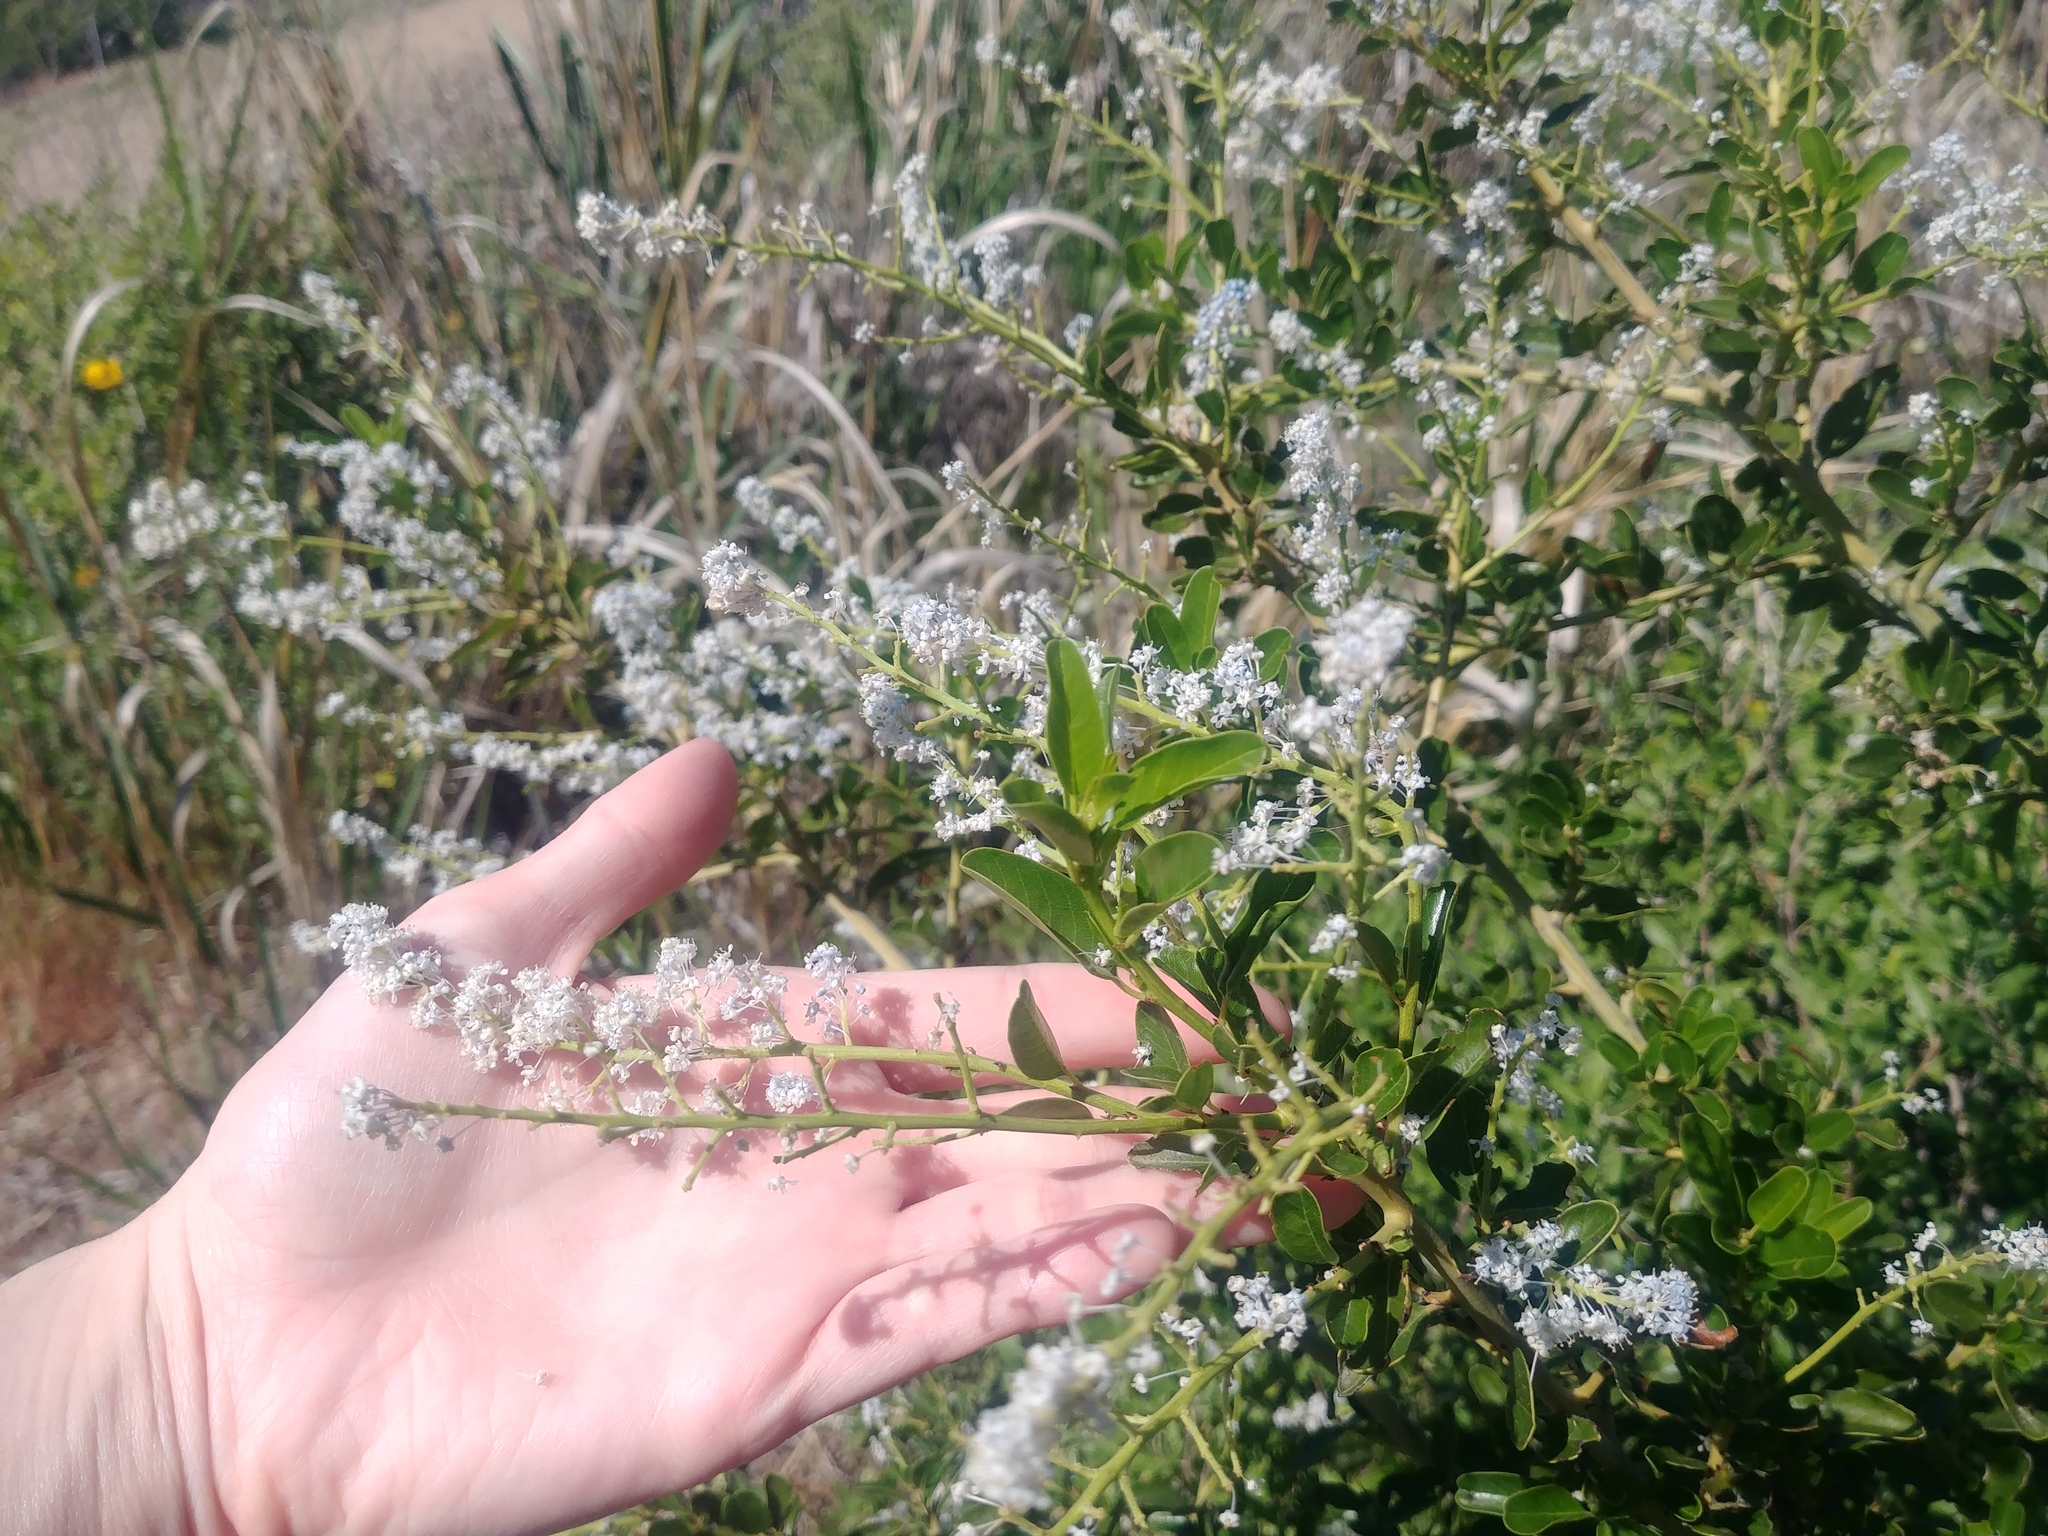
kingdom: Plantae
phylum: Tracheophyta
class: Magnoliopsida
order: Rosales
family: Rhamnaceae
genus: Ceanothus
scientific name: Ceanothus spinosus
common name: Greenbark whitethorn
